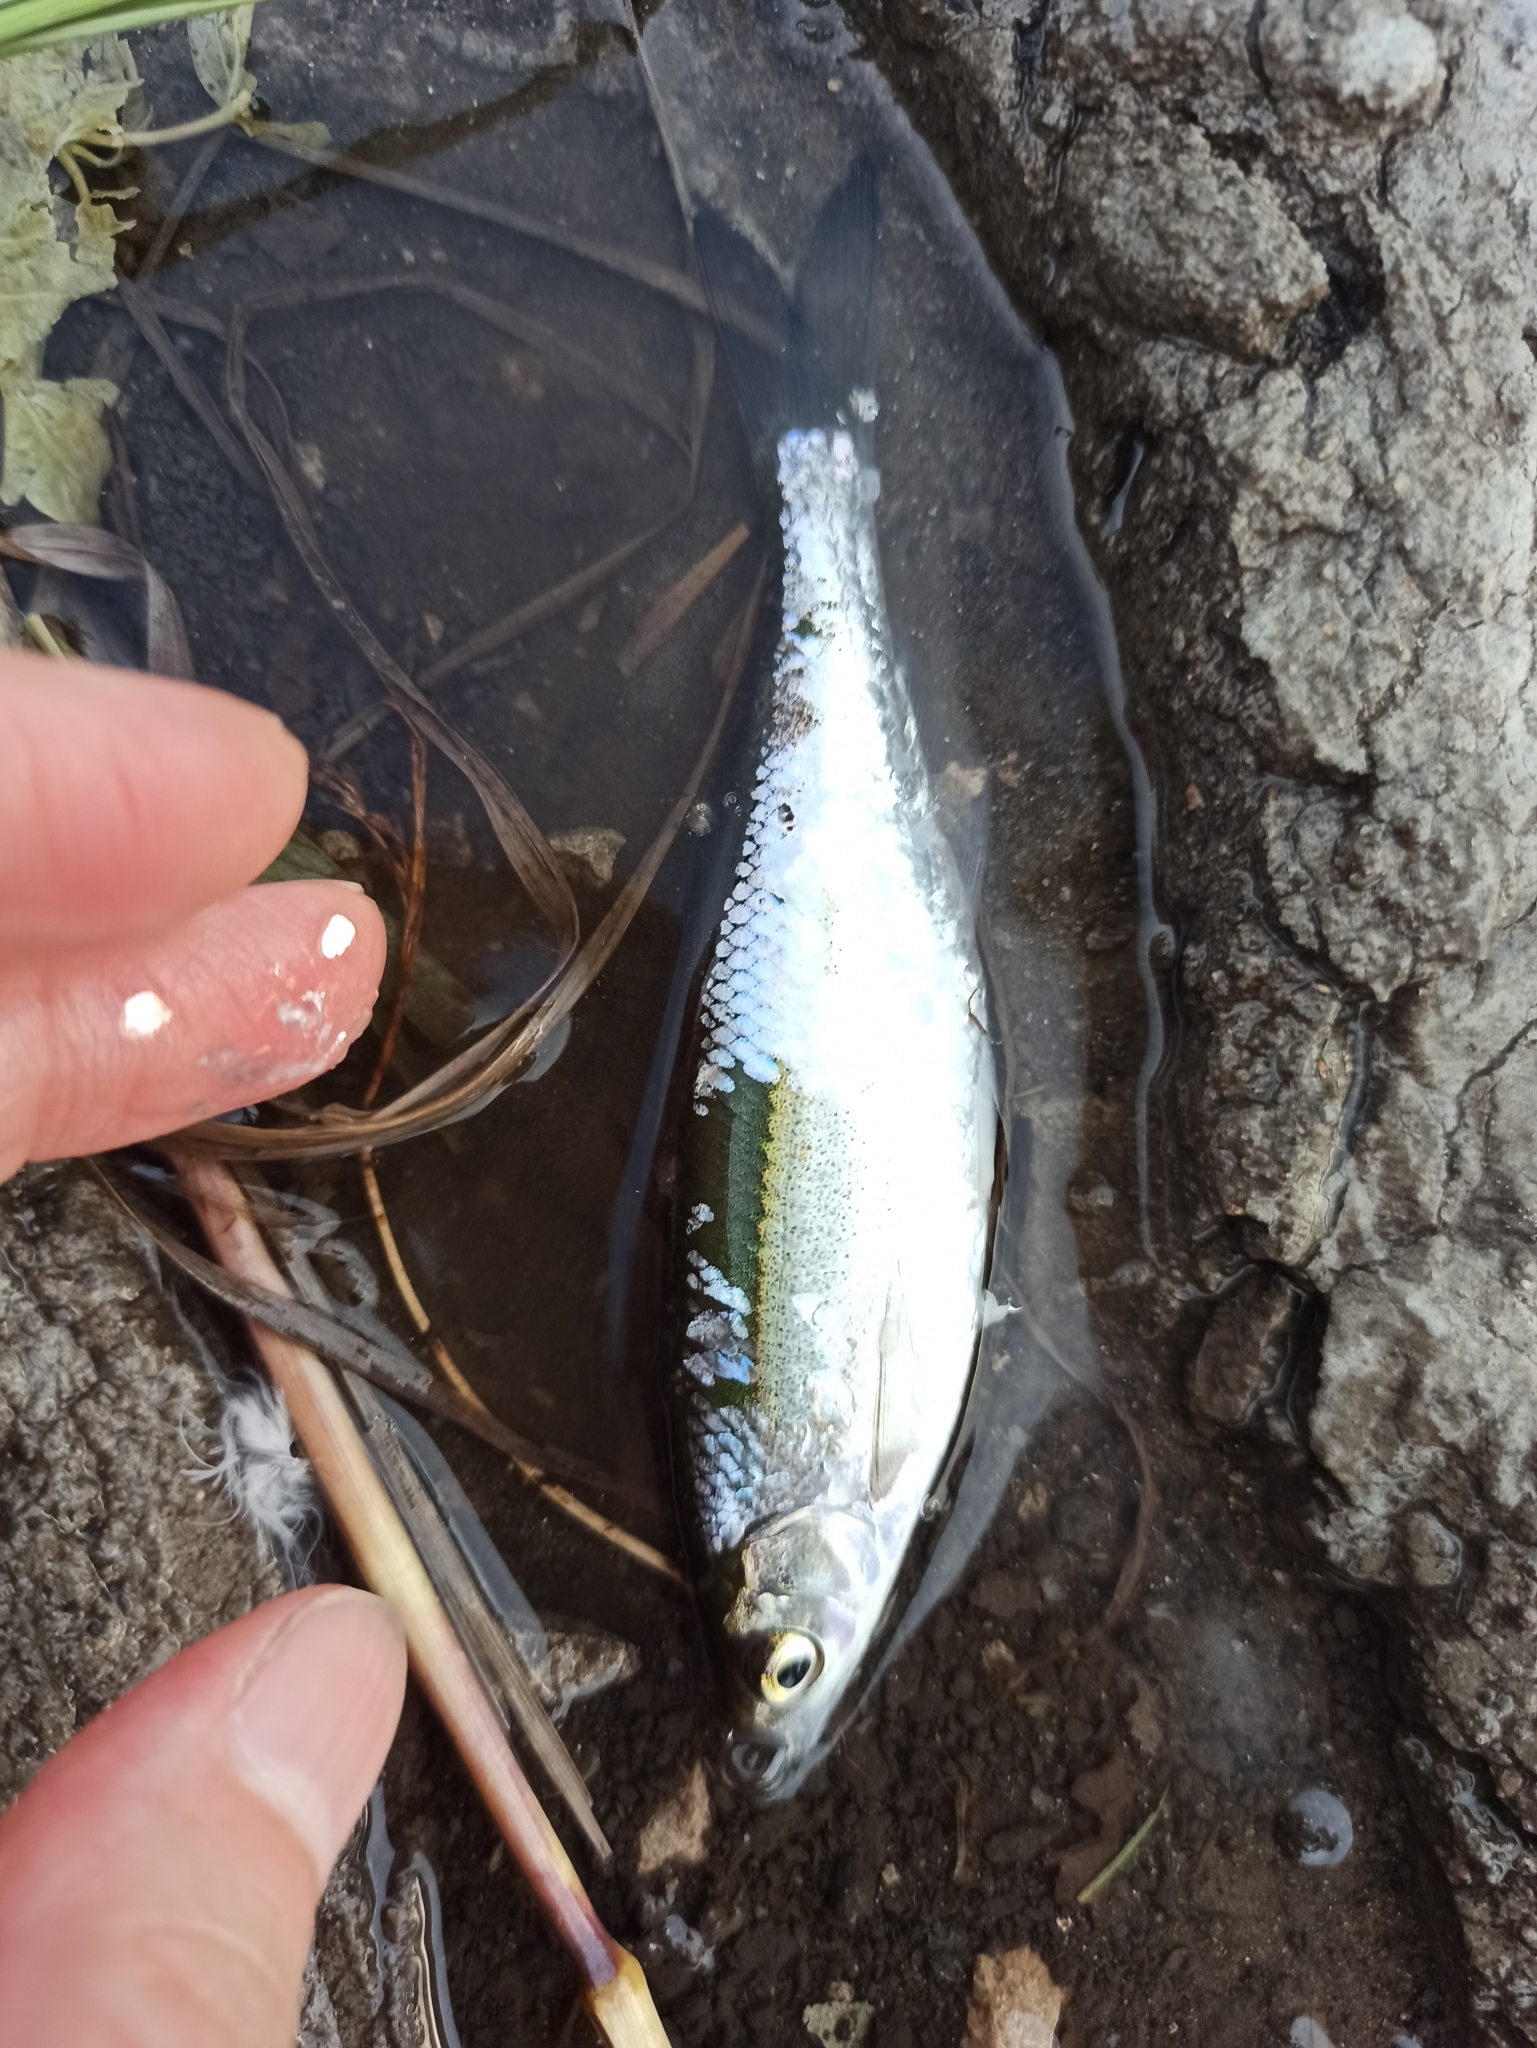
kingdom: Animalia
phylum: Chordata
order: Cypriniformes
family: Cyprinidae
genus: Alburnus
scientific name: Alburnus alburnus
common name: Bleak
